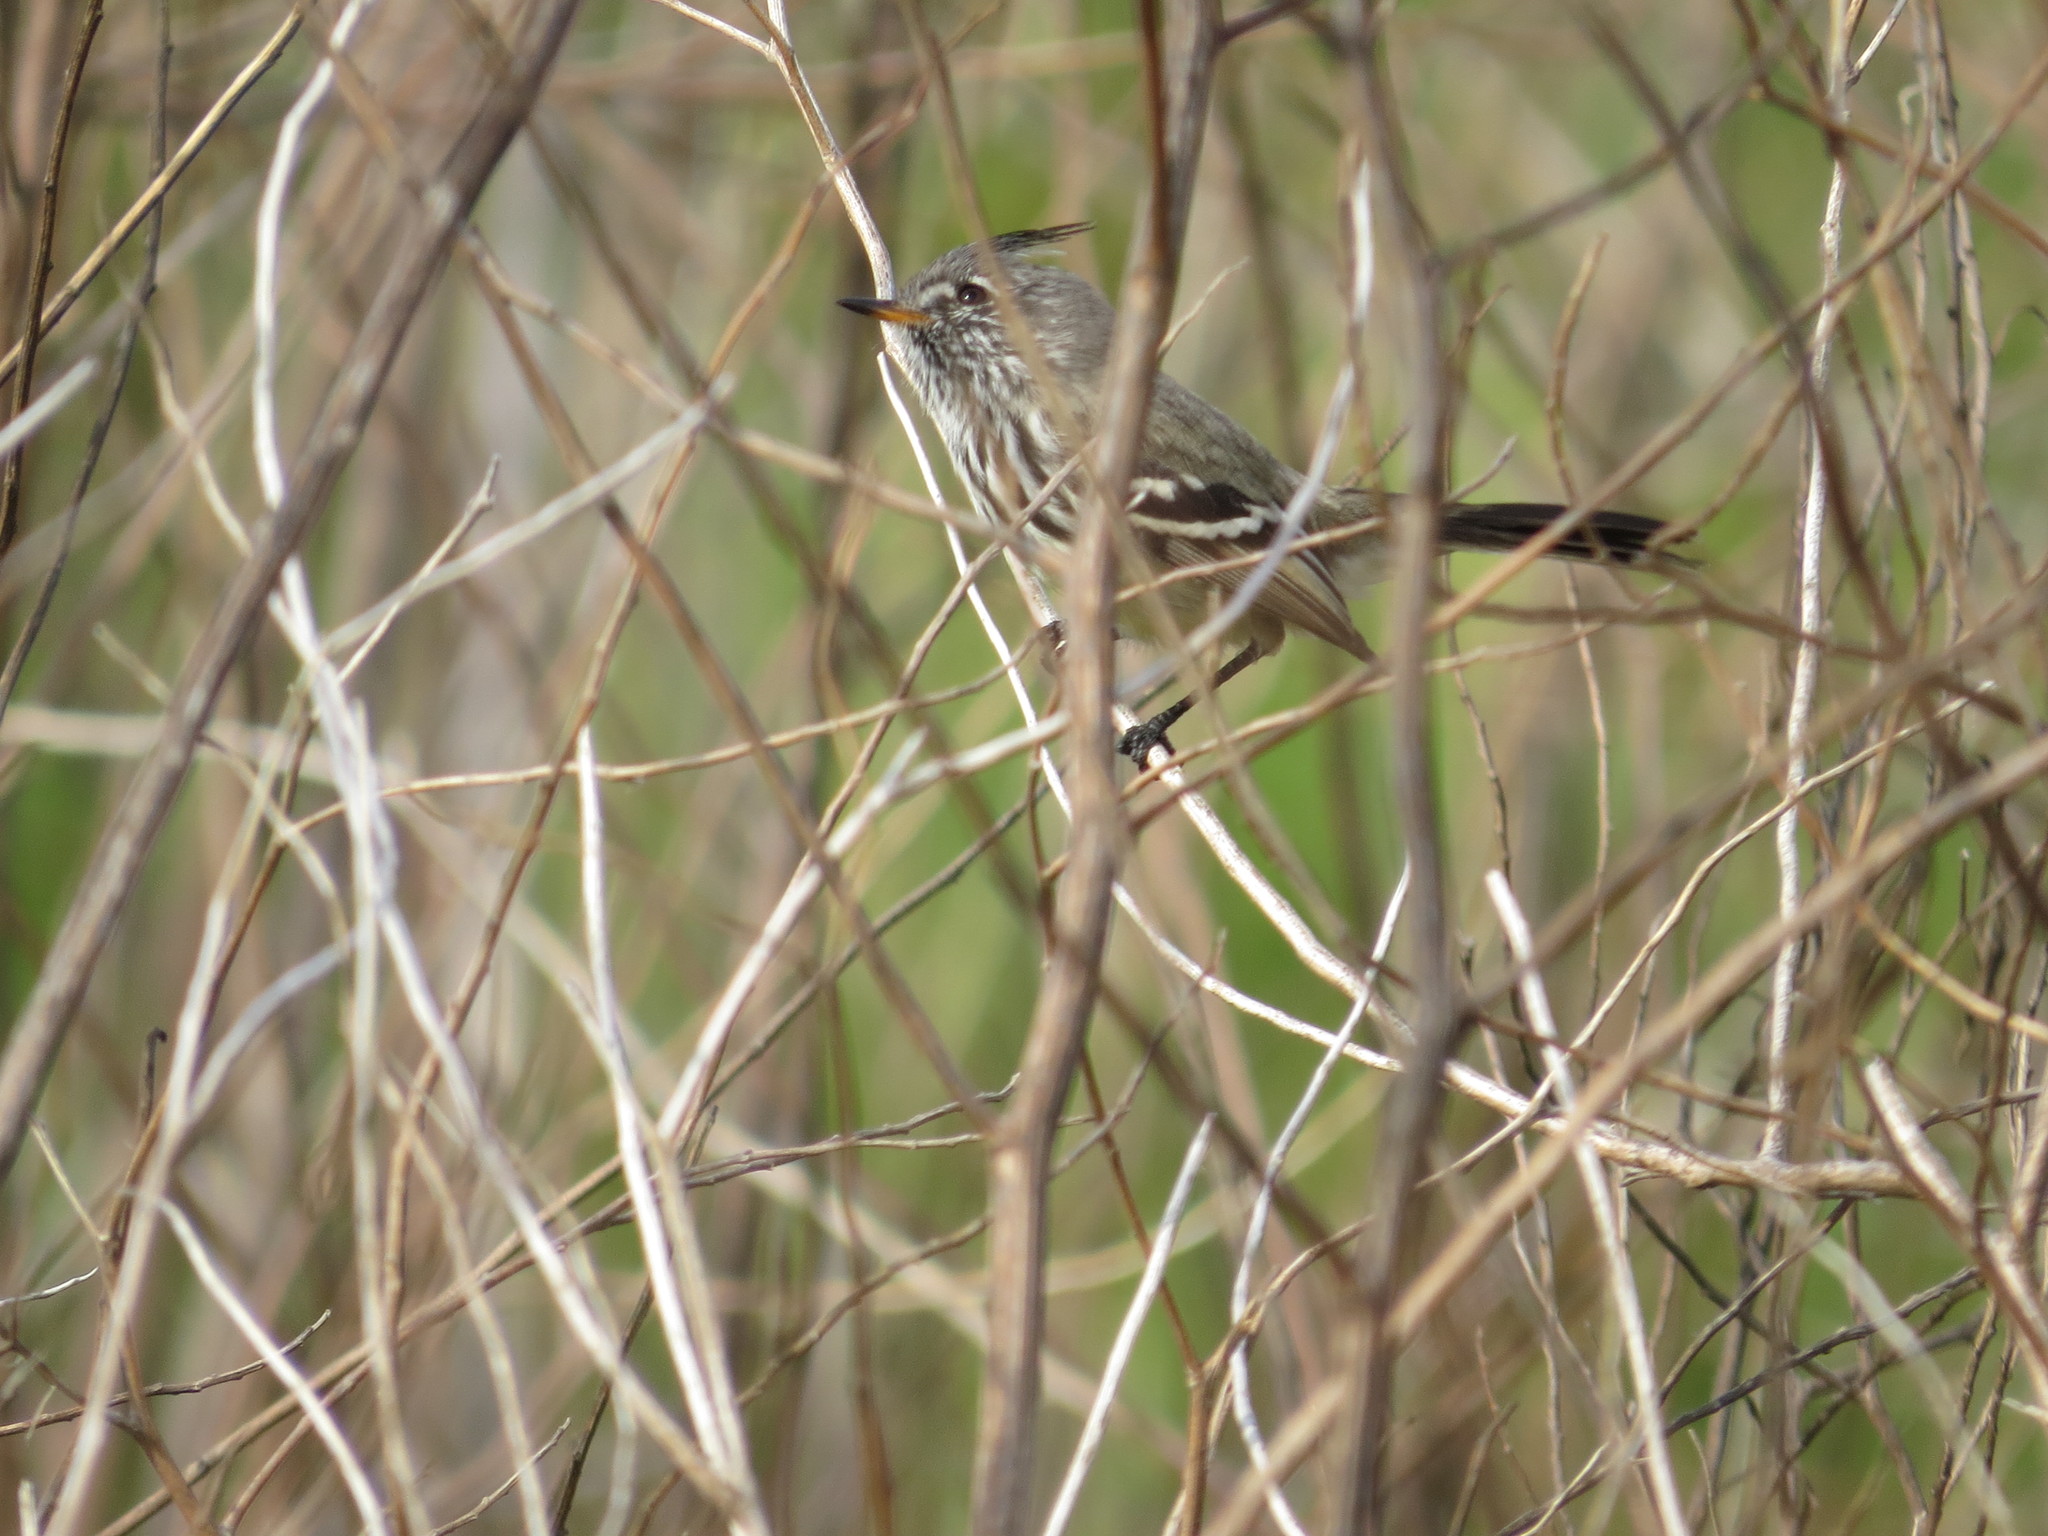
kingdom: Animalia
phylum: Chordata
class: Aves
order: Passeriformes
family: Tyrannidae
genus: Anairetes
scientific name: Anairetes flavirostris
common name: Yellow-billed tit-tyrant
